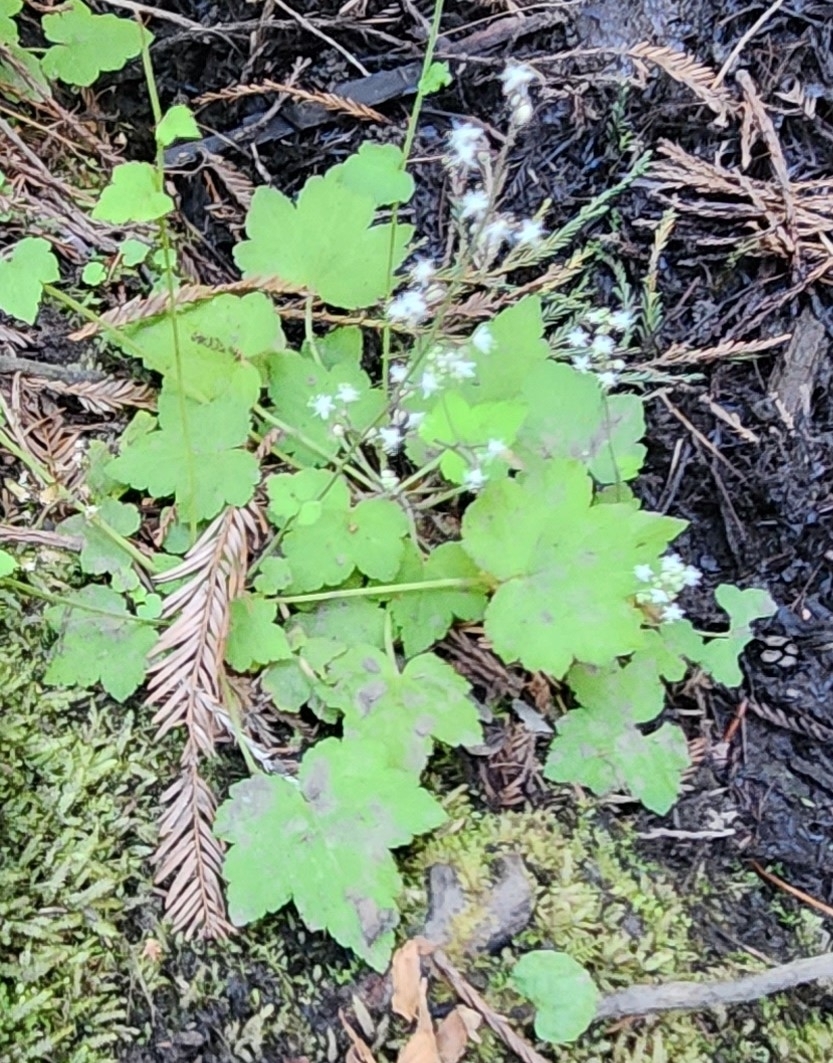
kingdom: Plantae
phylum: Tracheophyta
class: Magnoliopsida
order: Saxifragales
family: Saxifragaceae
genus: Tiarella
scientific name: Tiarella trifoliata
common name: Sugar-scoop
